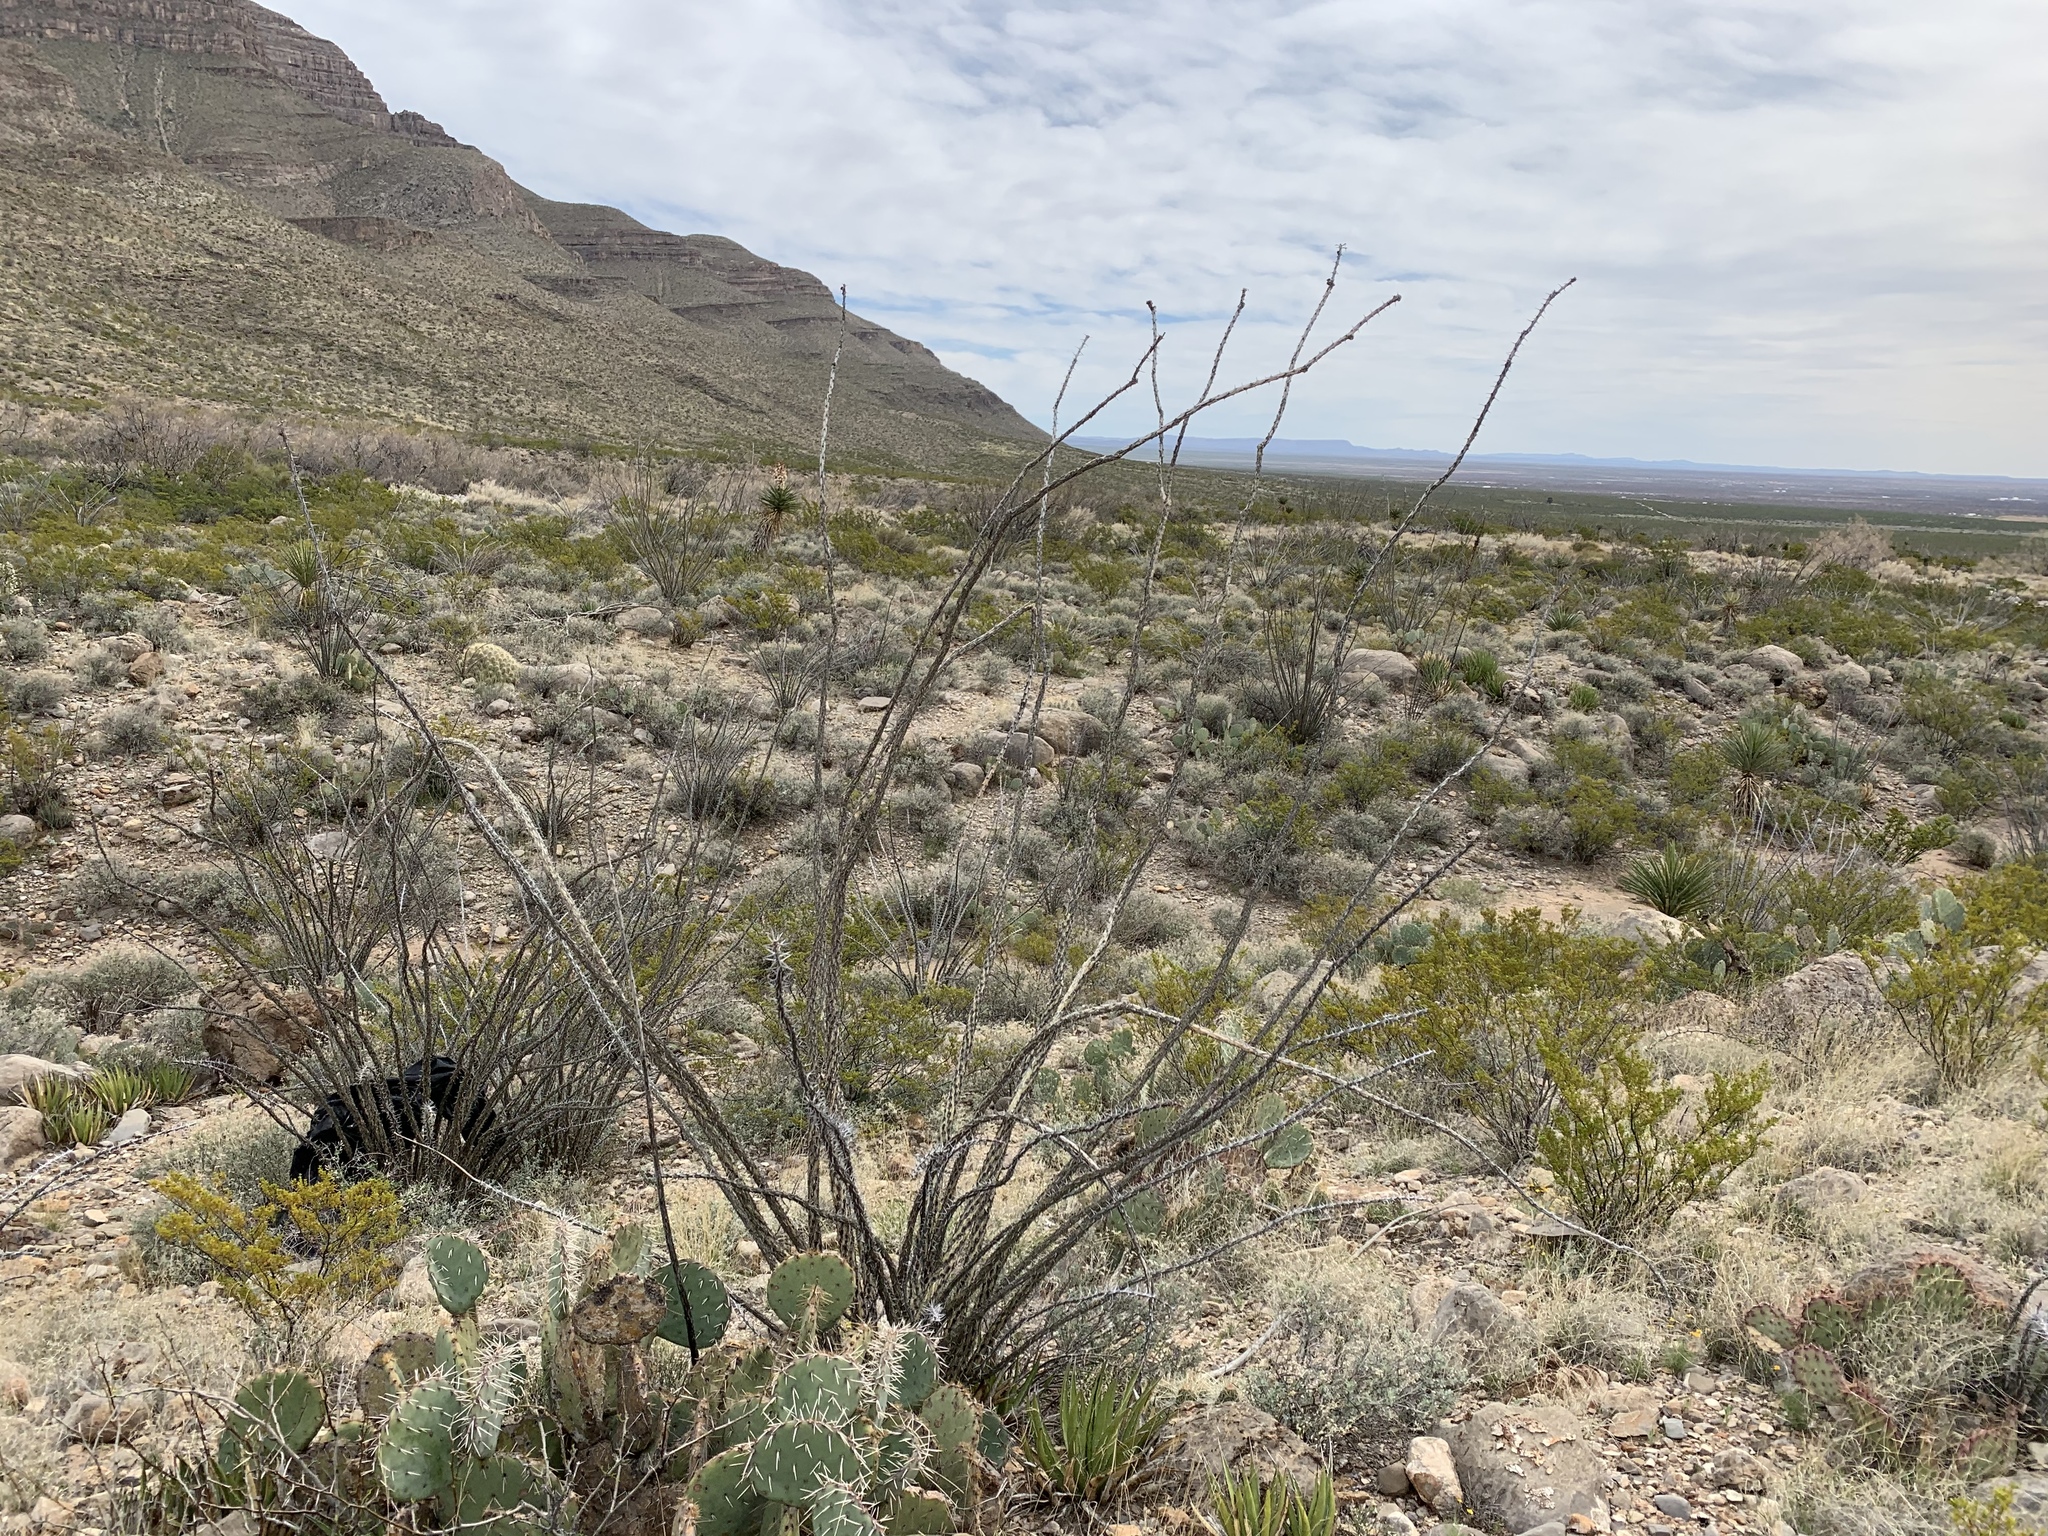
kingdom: Plantae
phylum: Tracheophyta
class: Magnoliopsida
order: Ericales
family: Fouquieriaceae
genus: Fouquieria
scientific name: Fouquieria splendens
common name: Vine-cactus
